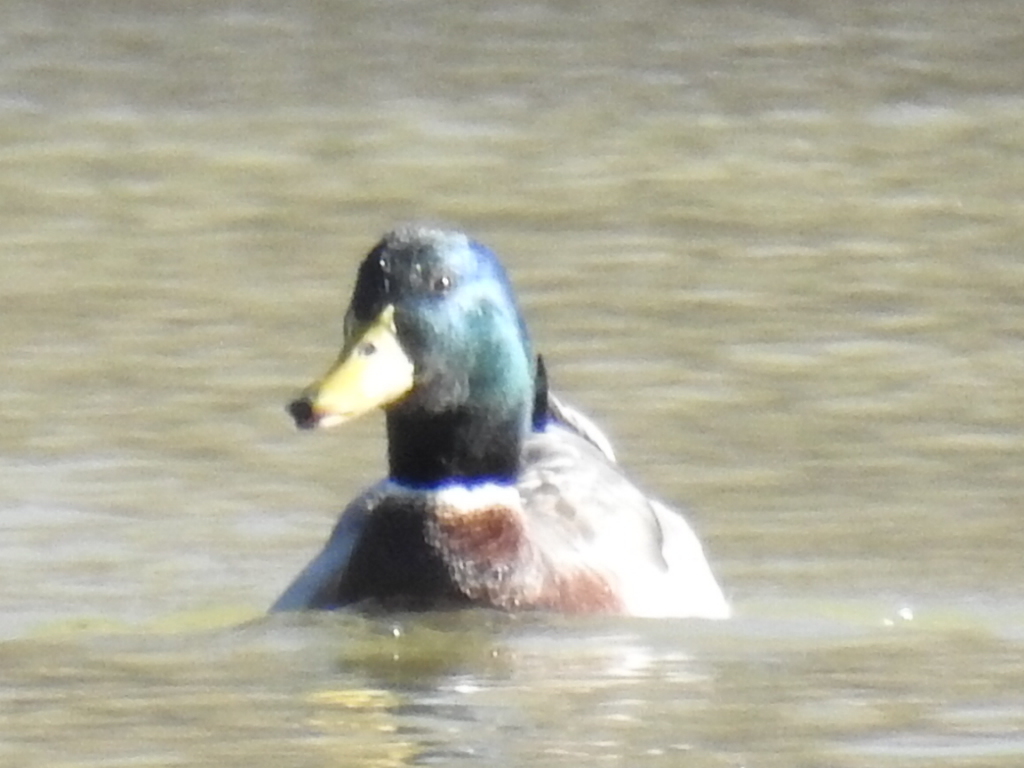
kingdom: Animalia
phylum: Chordata
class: Aves
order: Anseriformes
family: Anatidae
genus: Anas
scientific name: Anas platyrhynchos
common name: Mallard
